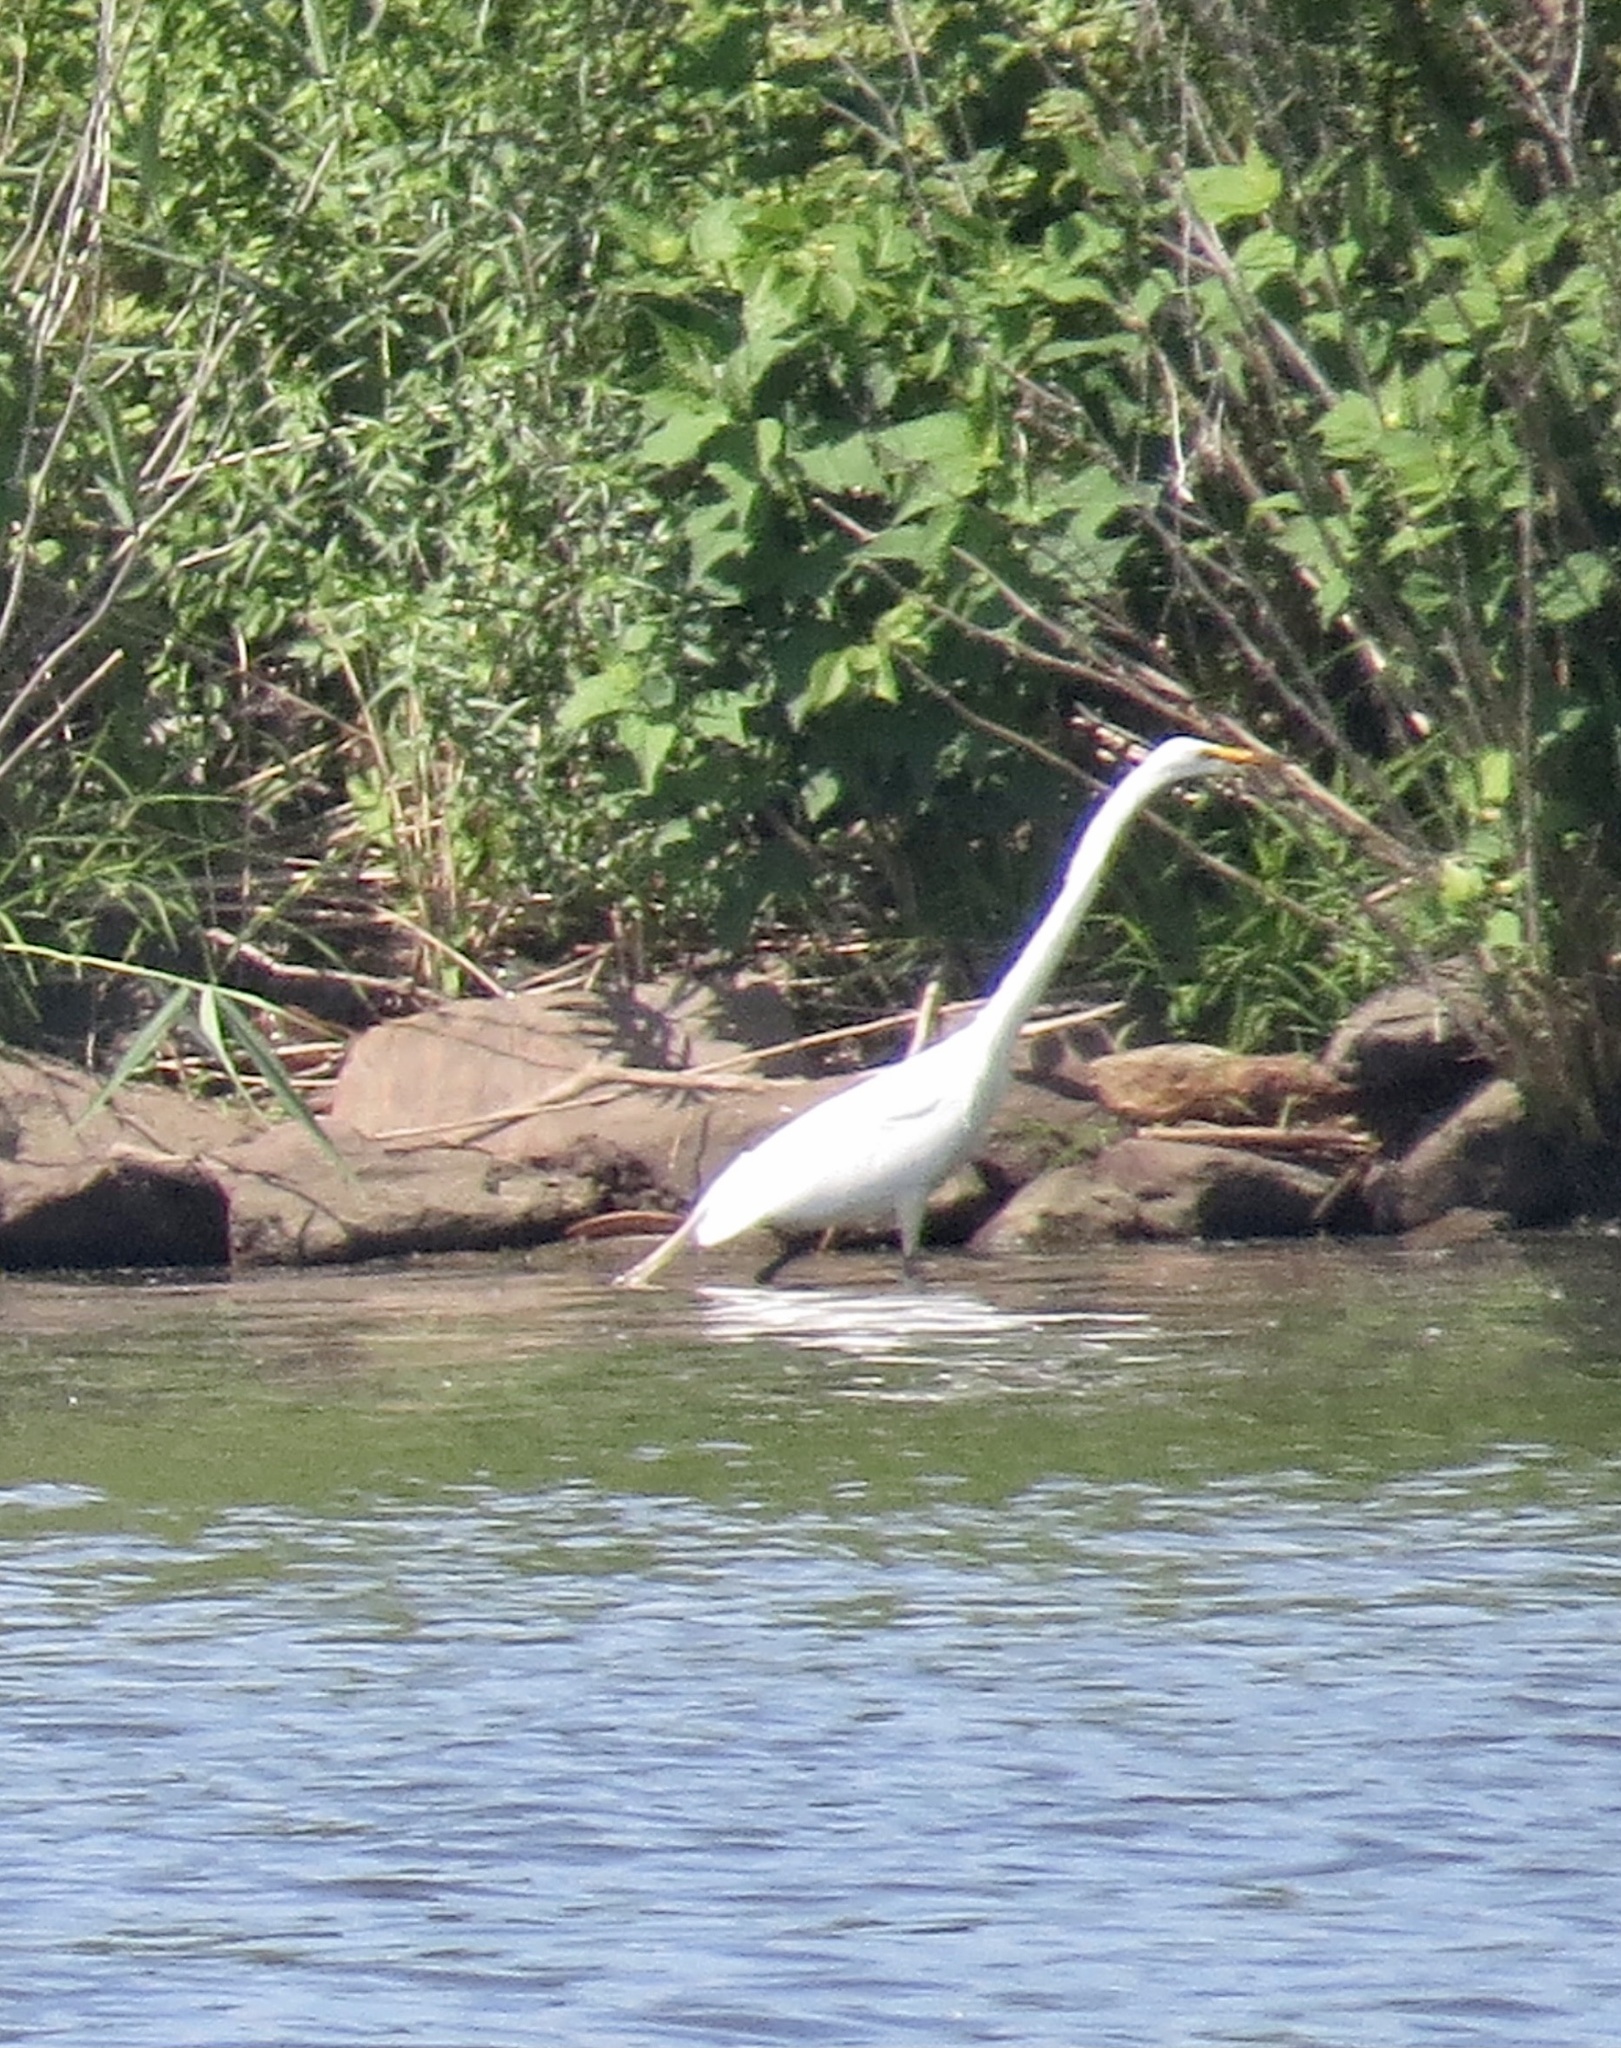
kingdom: Animalia
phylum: Chordata
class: Aves
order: Pelecaniformes
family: Ardeidae
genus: Ardea
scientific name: Ardea alba
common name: Great egret
